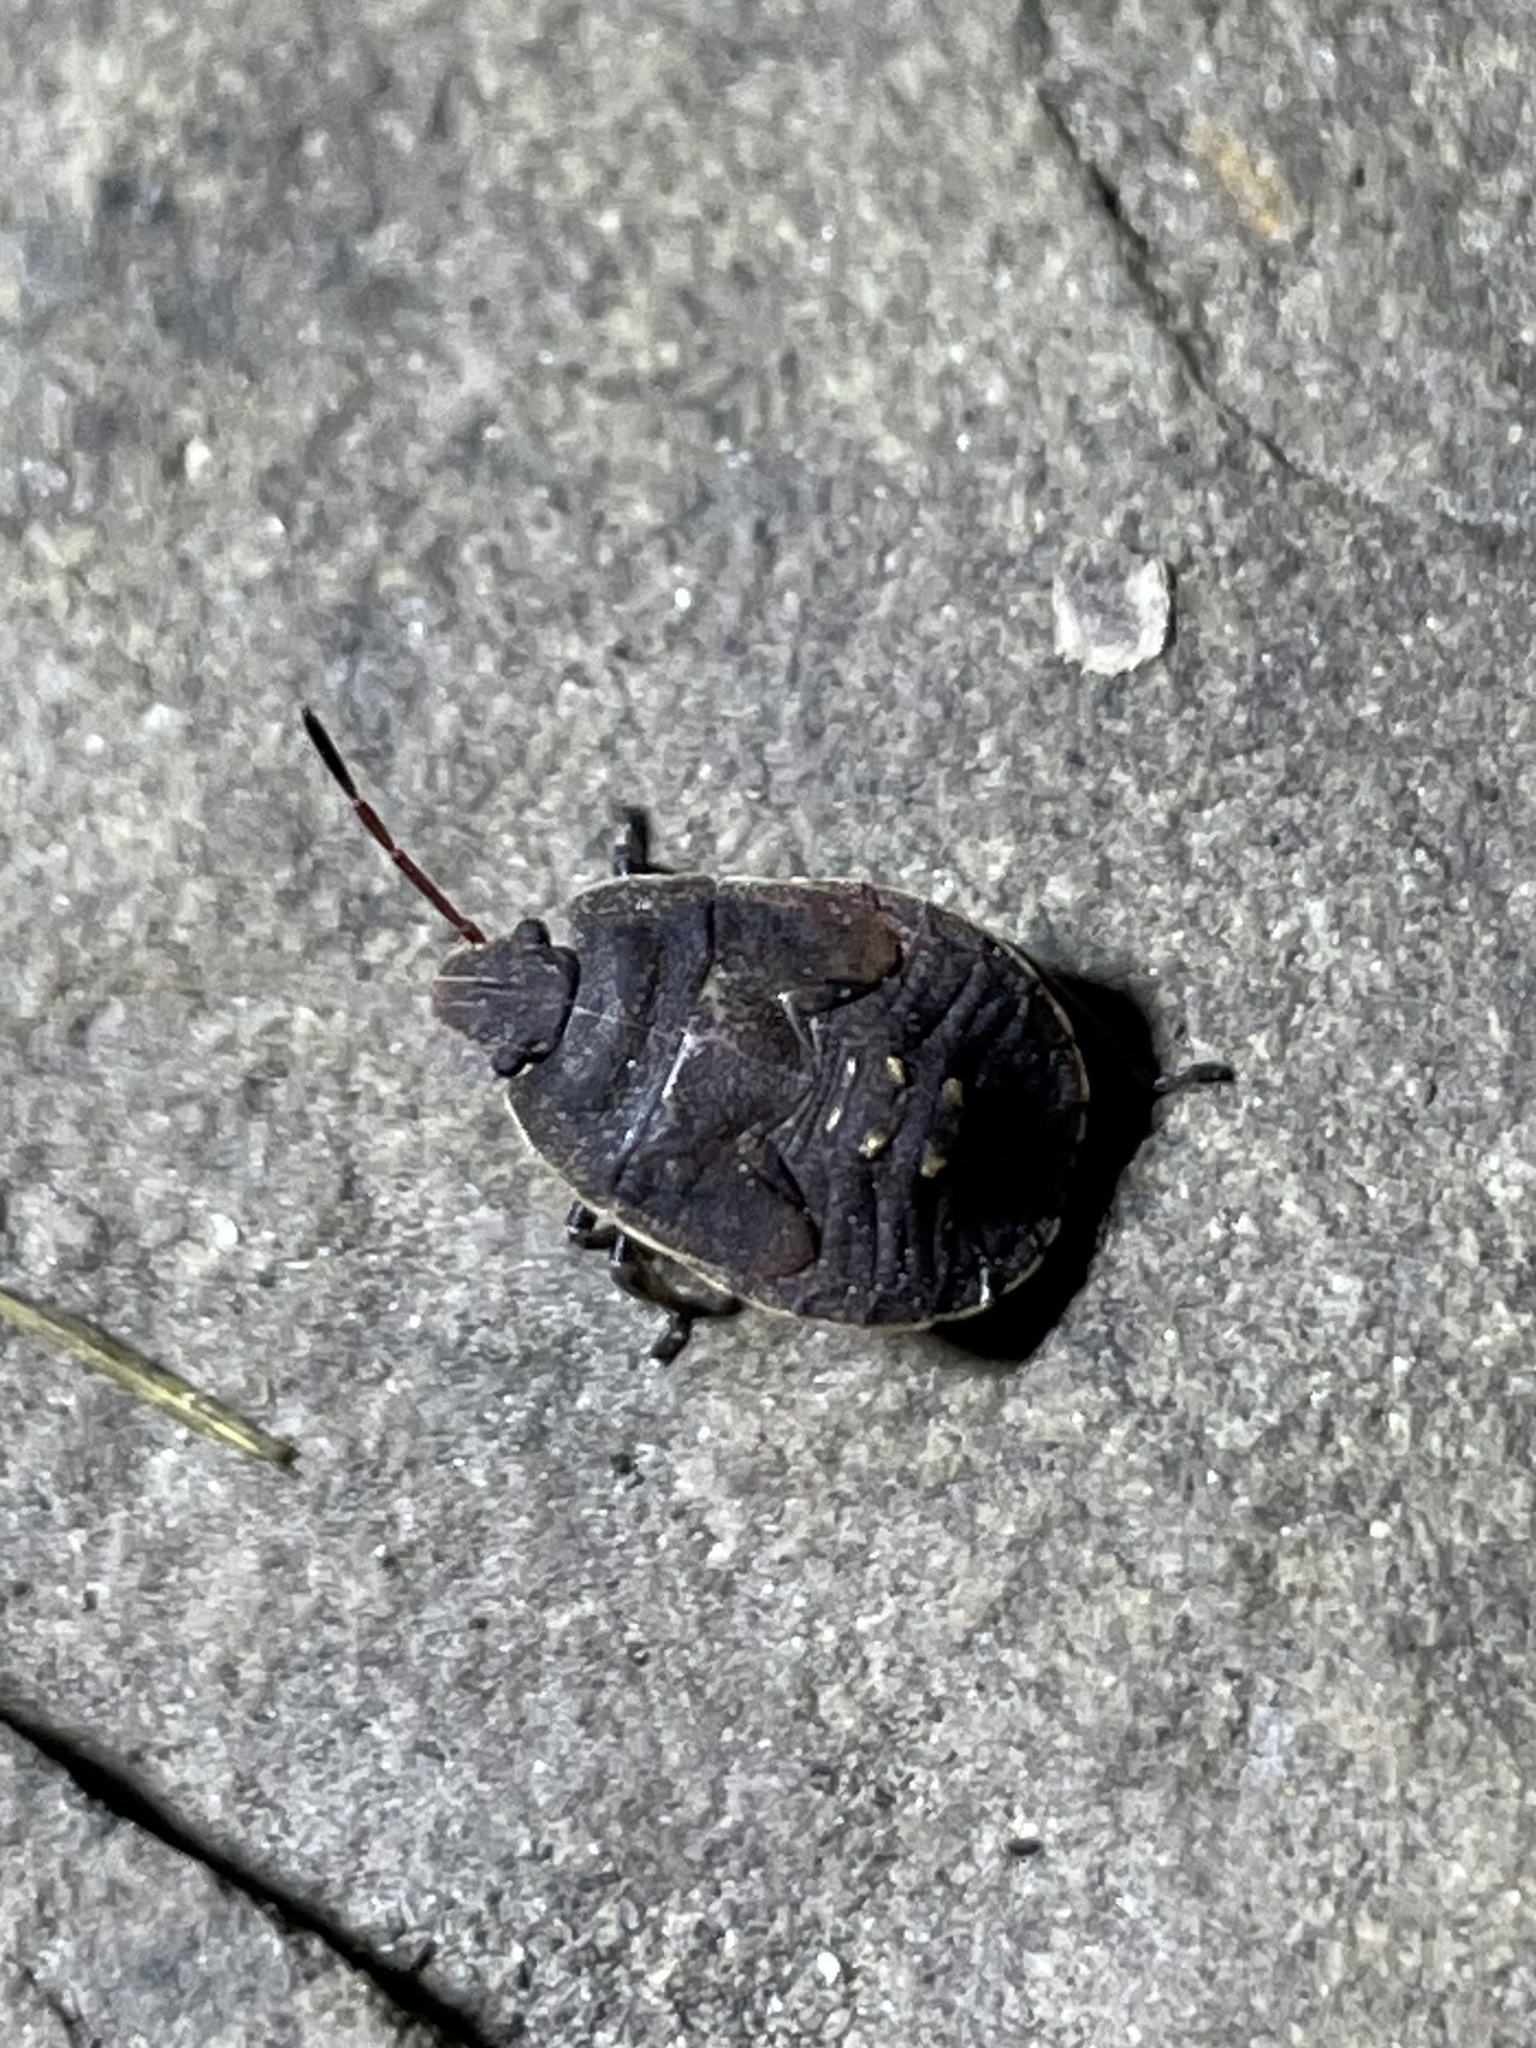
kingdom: Animalia
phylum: Arthropoda
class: Insecta
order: Hemiptera
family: Pentatomidae
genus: Menecles
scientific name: Menecles insertus
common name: Elf shoe stink bug
